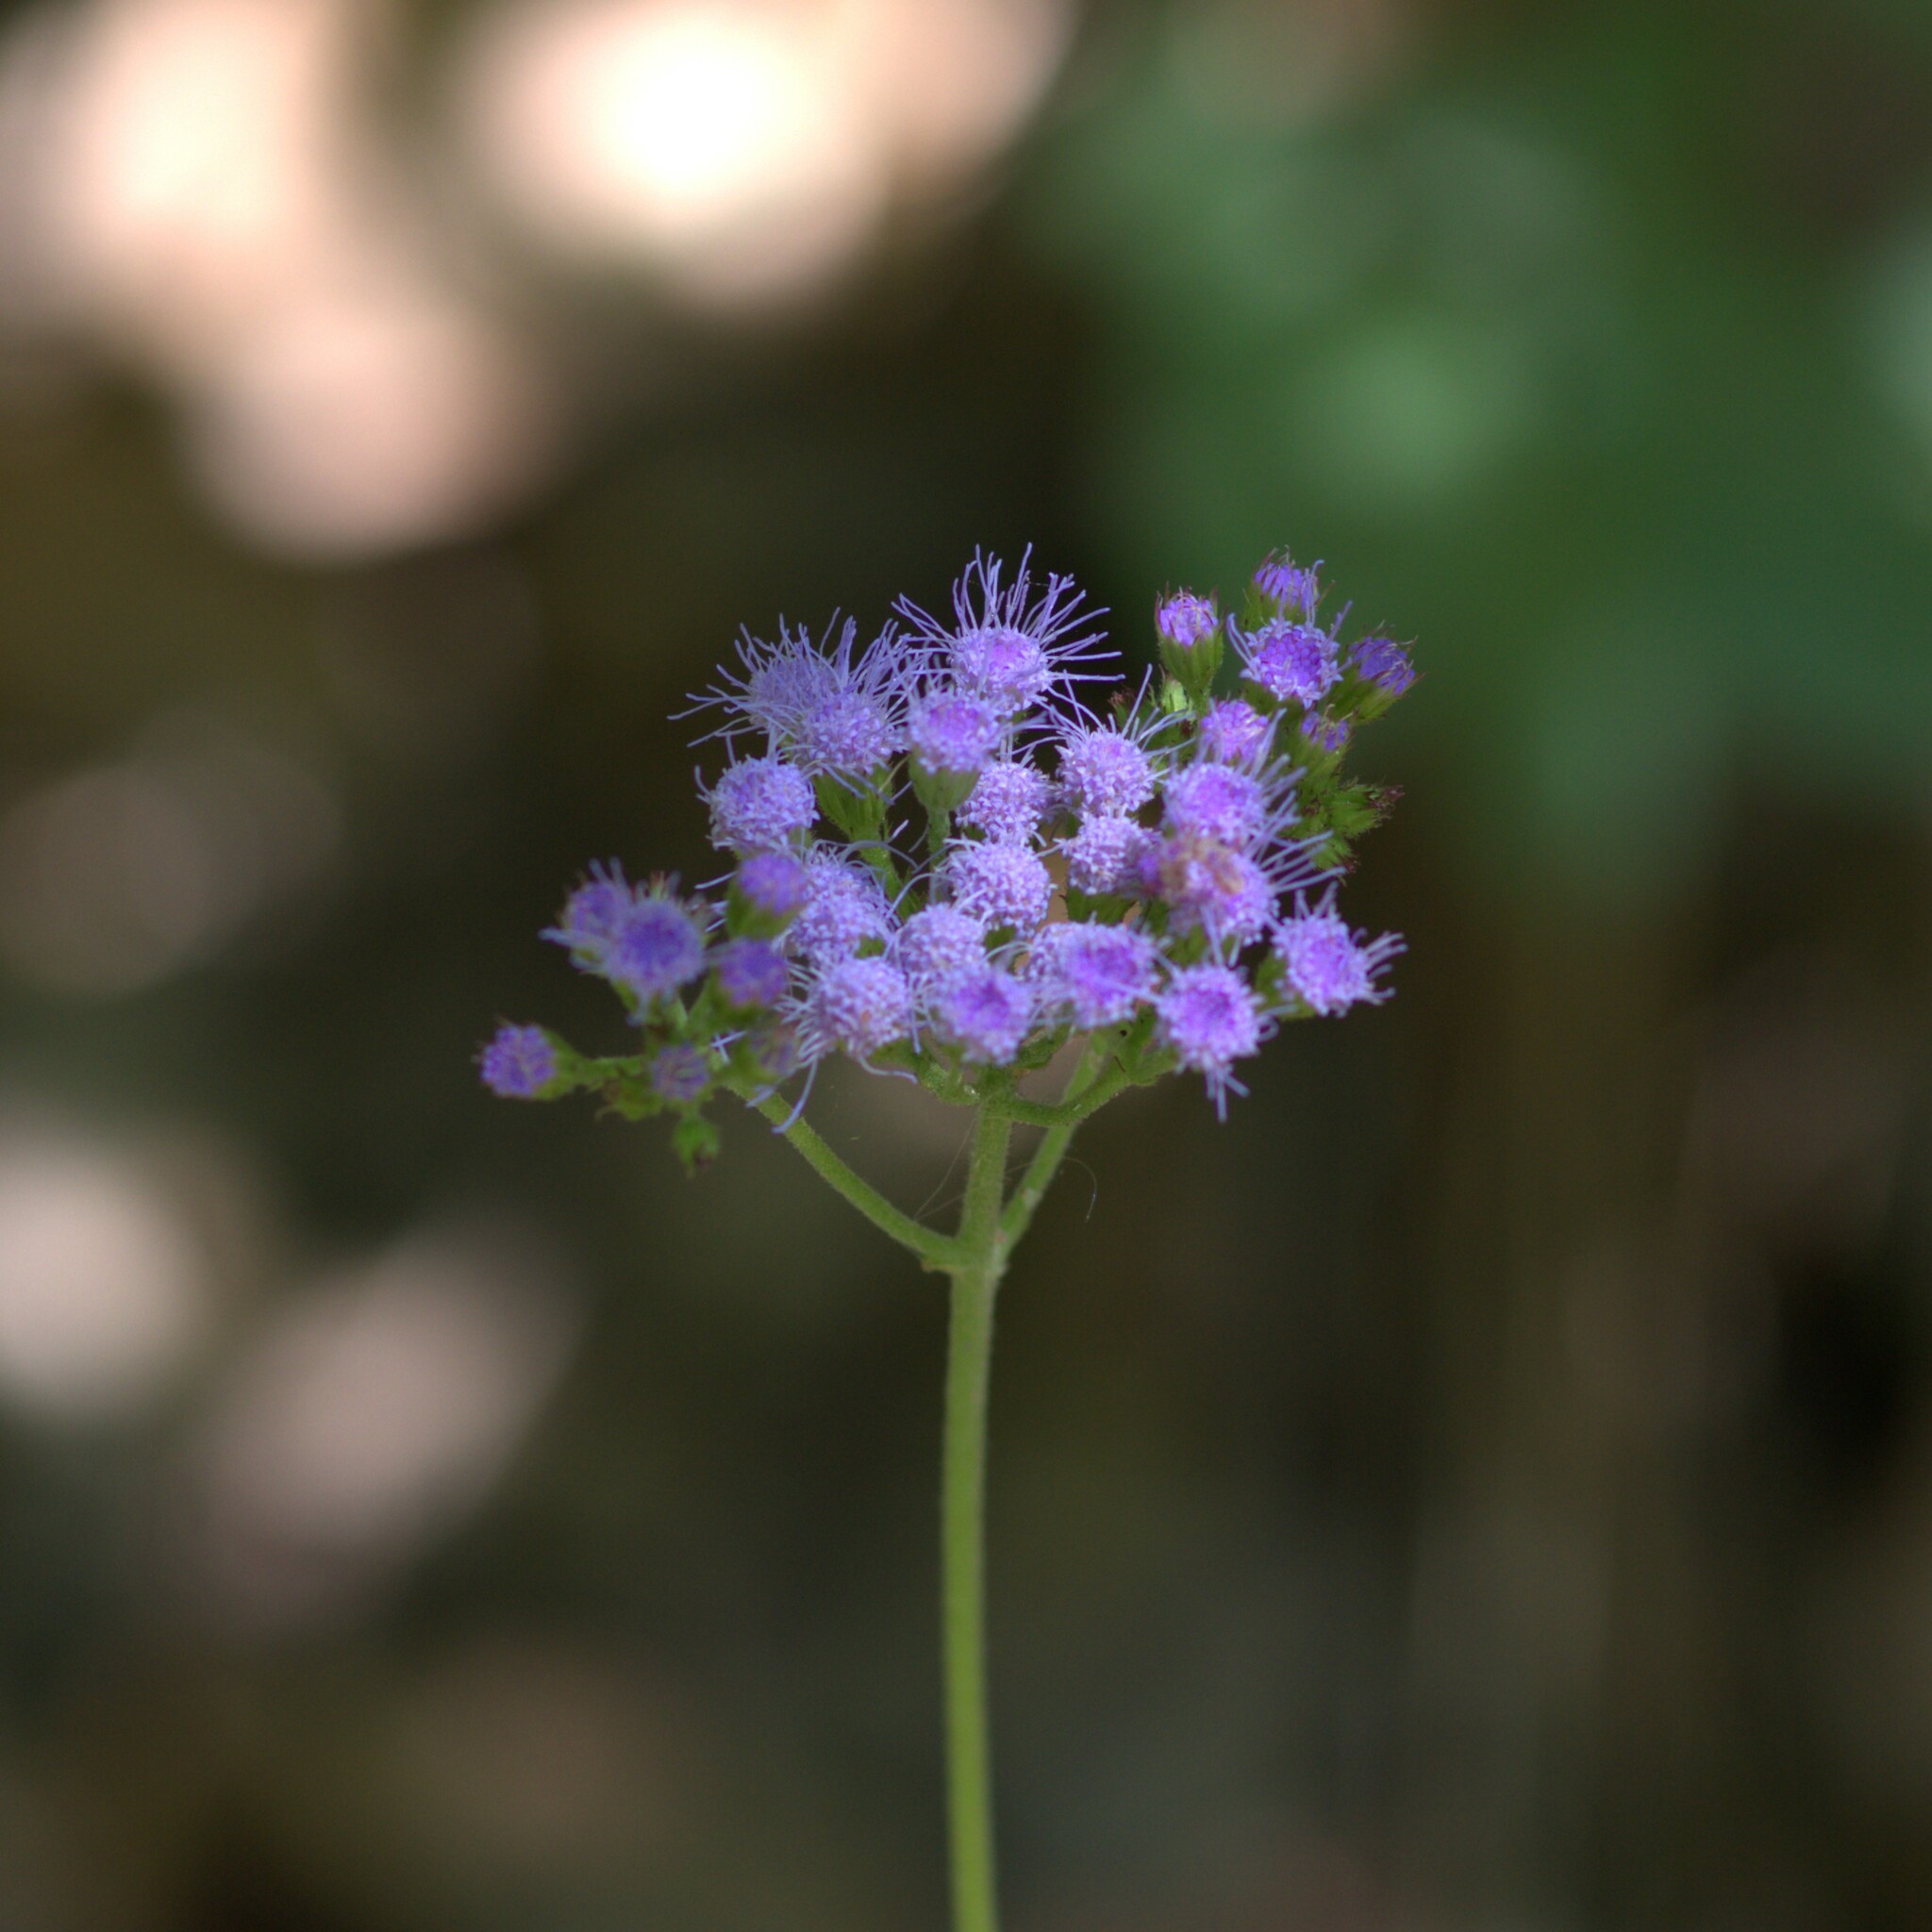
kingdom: Plantae
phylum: Tracheophyta
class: Magnoliopsida
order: Asterales
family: Asteraceae
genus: Conoclinium
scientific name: Conoclinium coelestinum
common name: Blue mistflower
